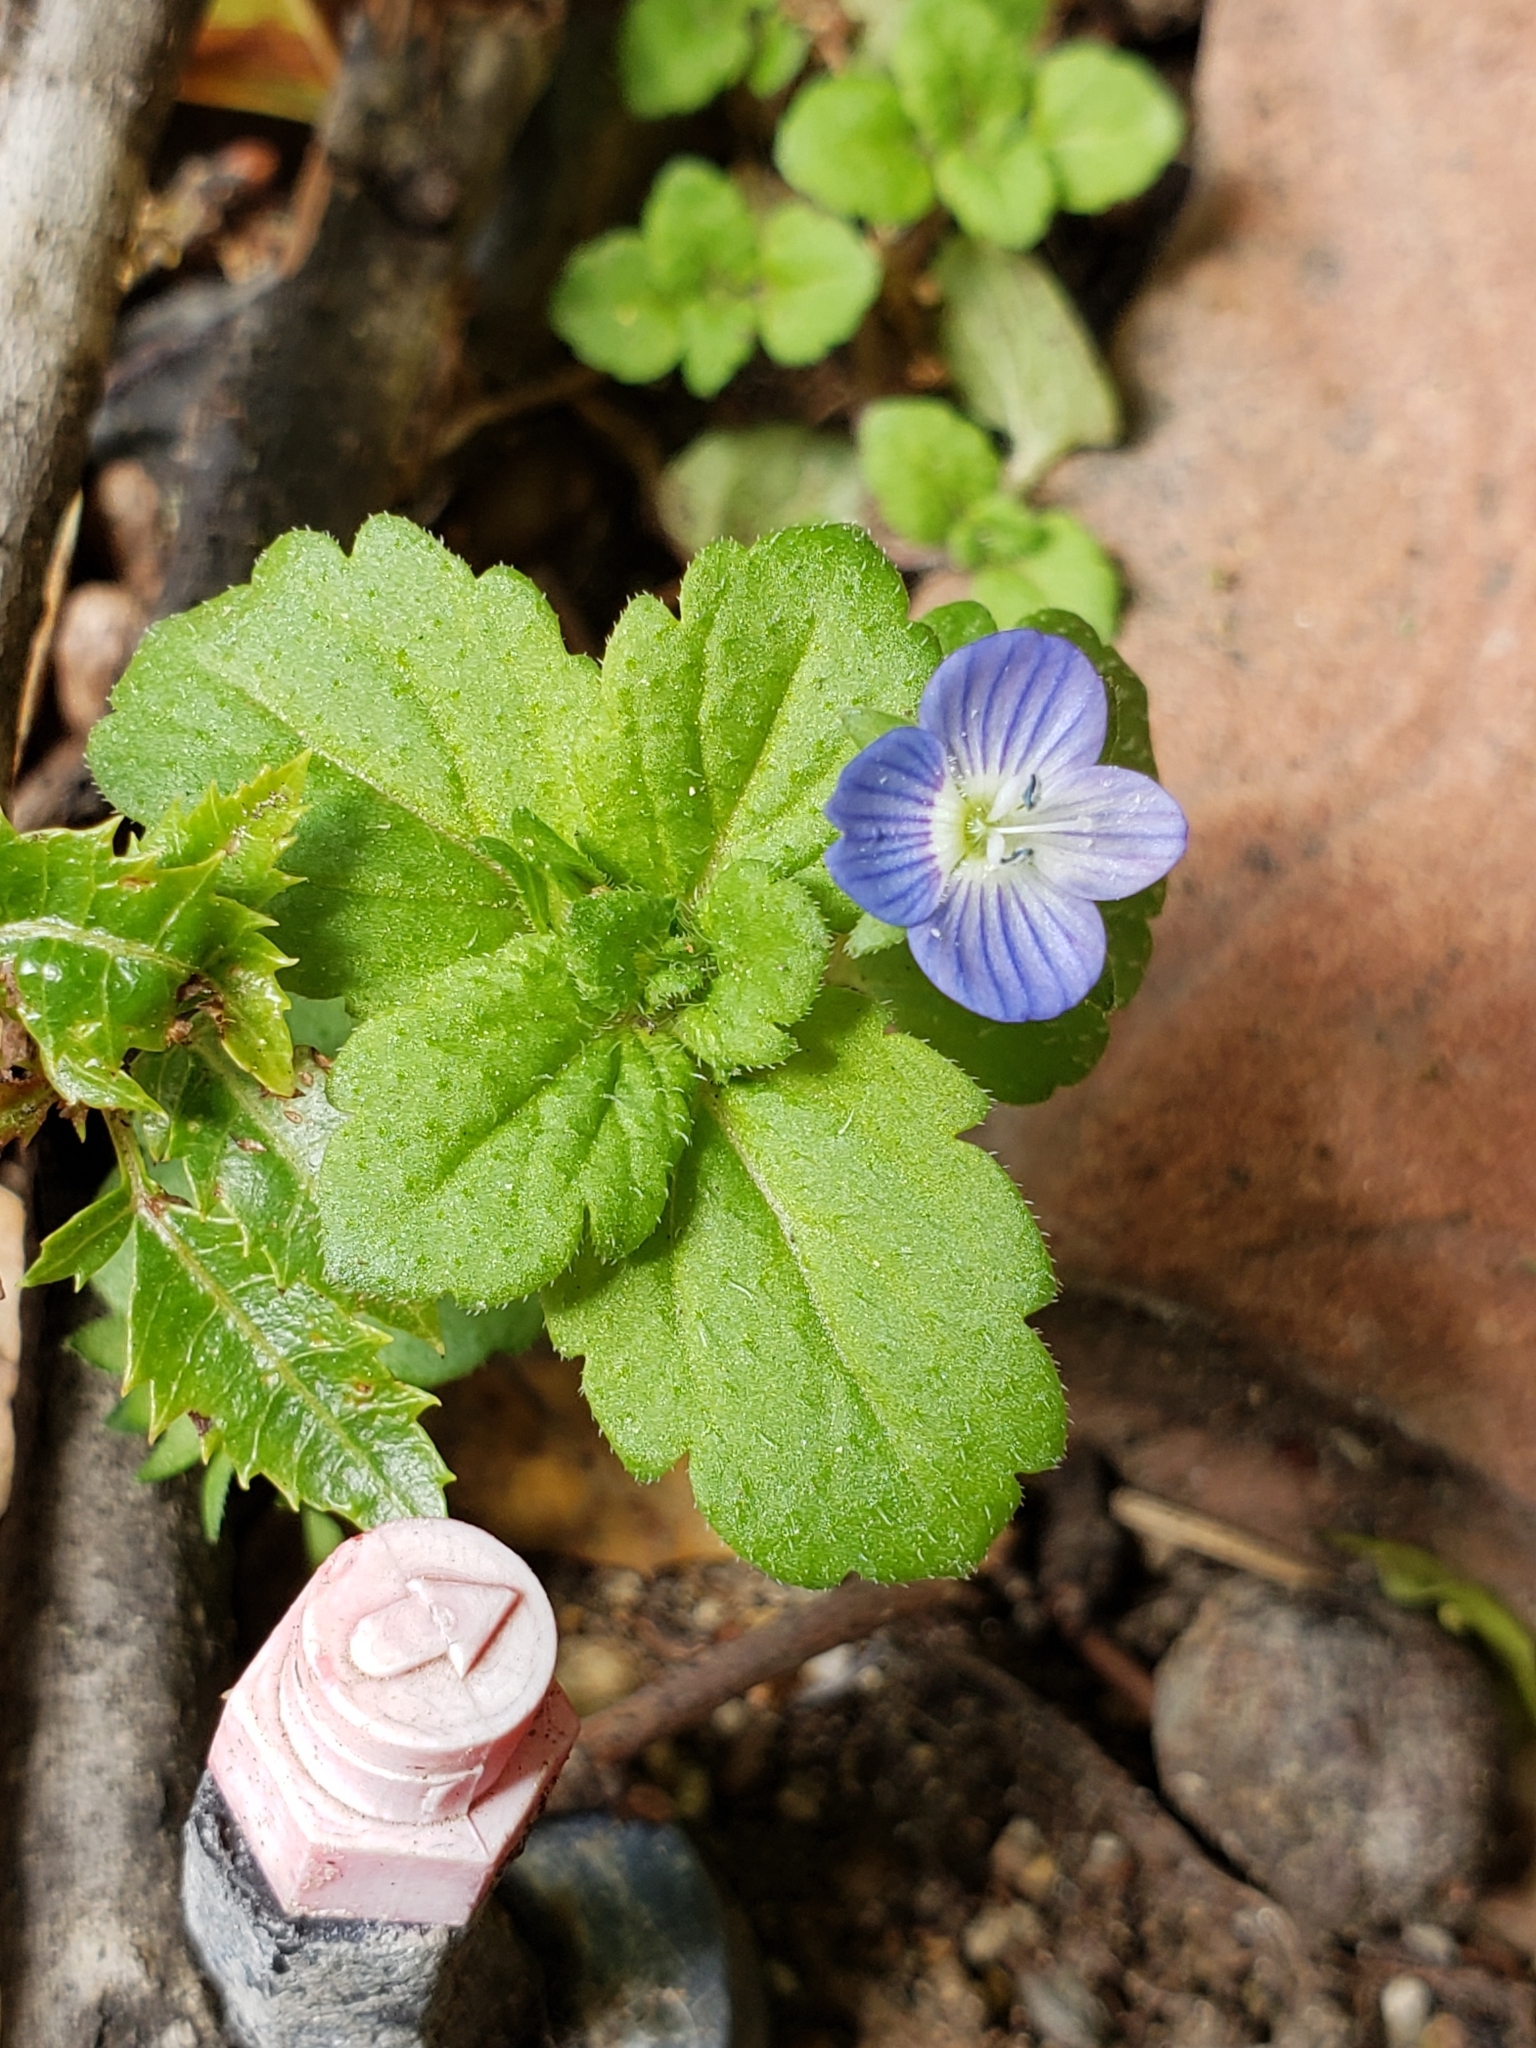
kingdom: Plantae
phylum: Tracheophyta
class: Magnoliopsida
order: Lamiales
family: Plantaginaceae
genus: Veronica
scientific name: Veronica persica
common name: Common field-speedwell
